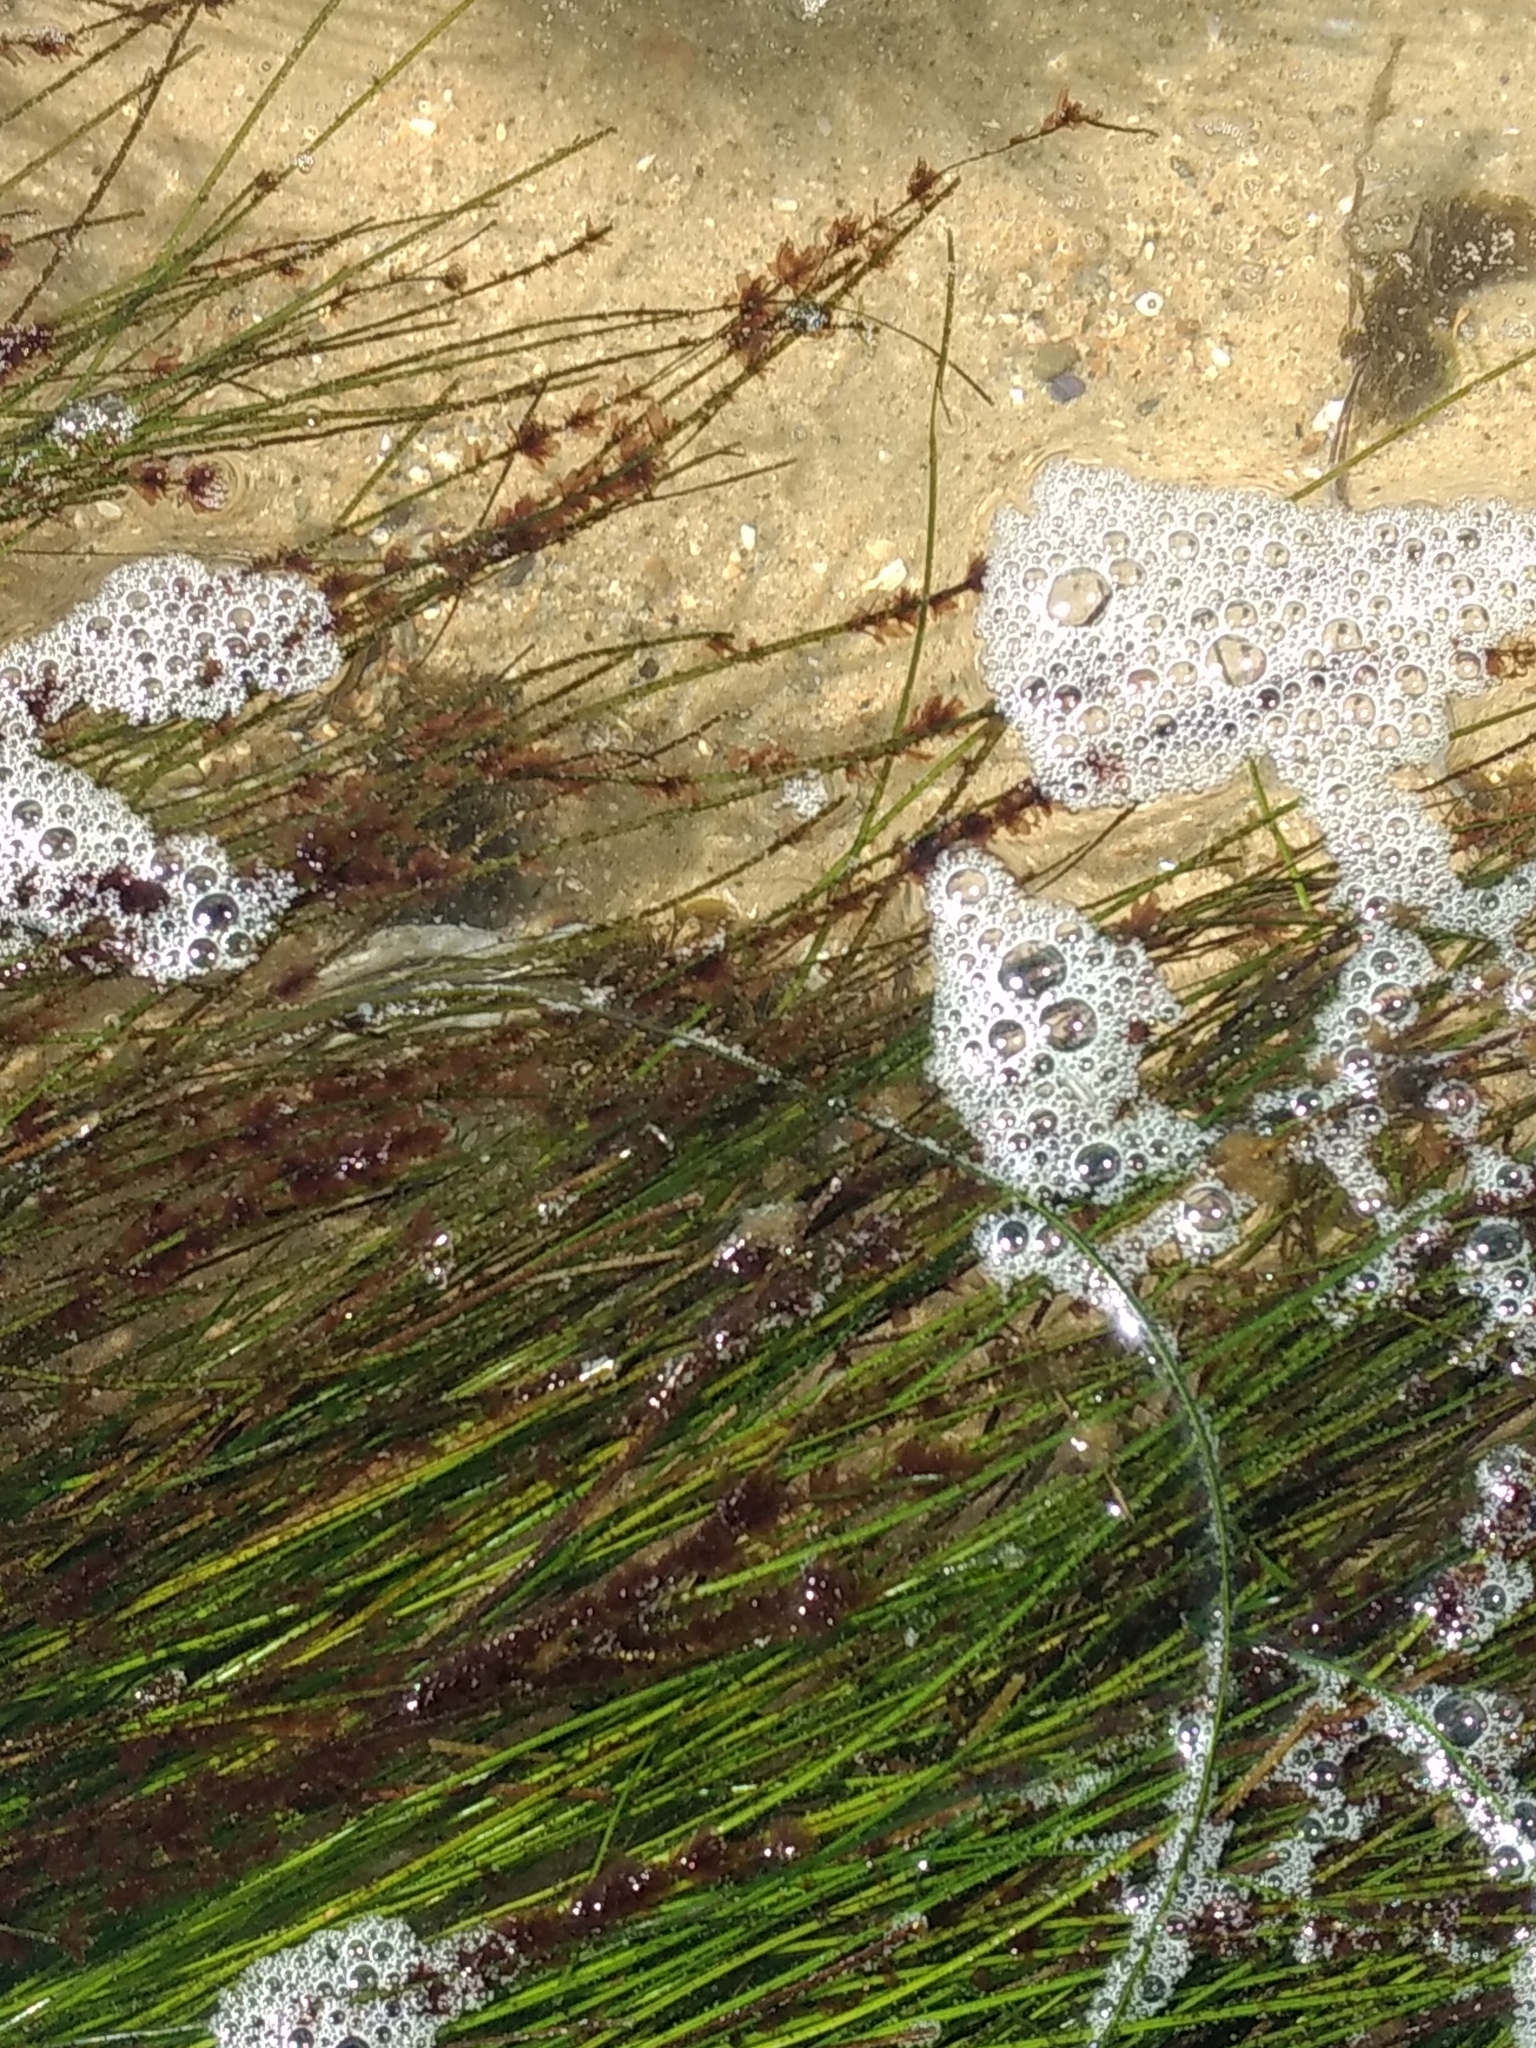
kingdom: Plantae
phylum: Tracheophyta
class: Liliopsida
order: Alismatales
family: Zosteraceae
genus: Phyllospadix
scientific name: Phyllospadix torreyi
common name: Surfgrass
